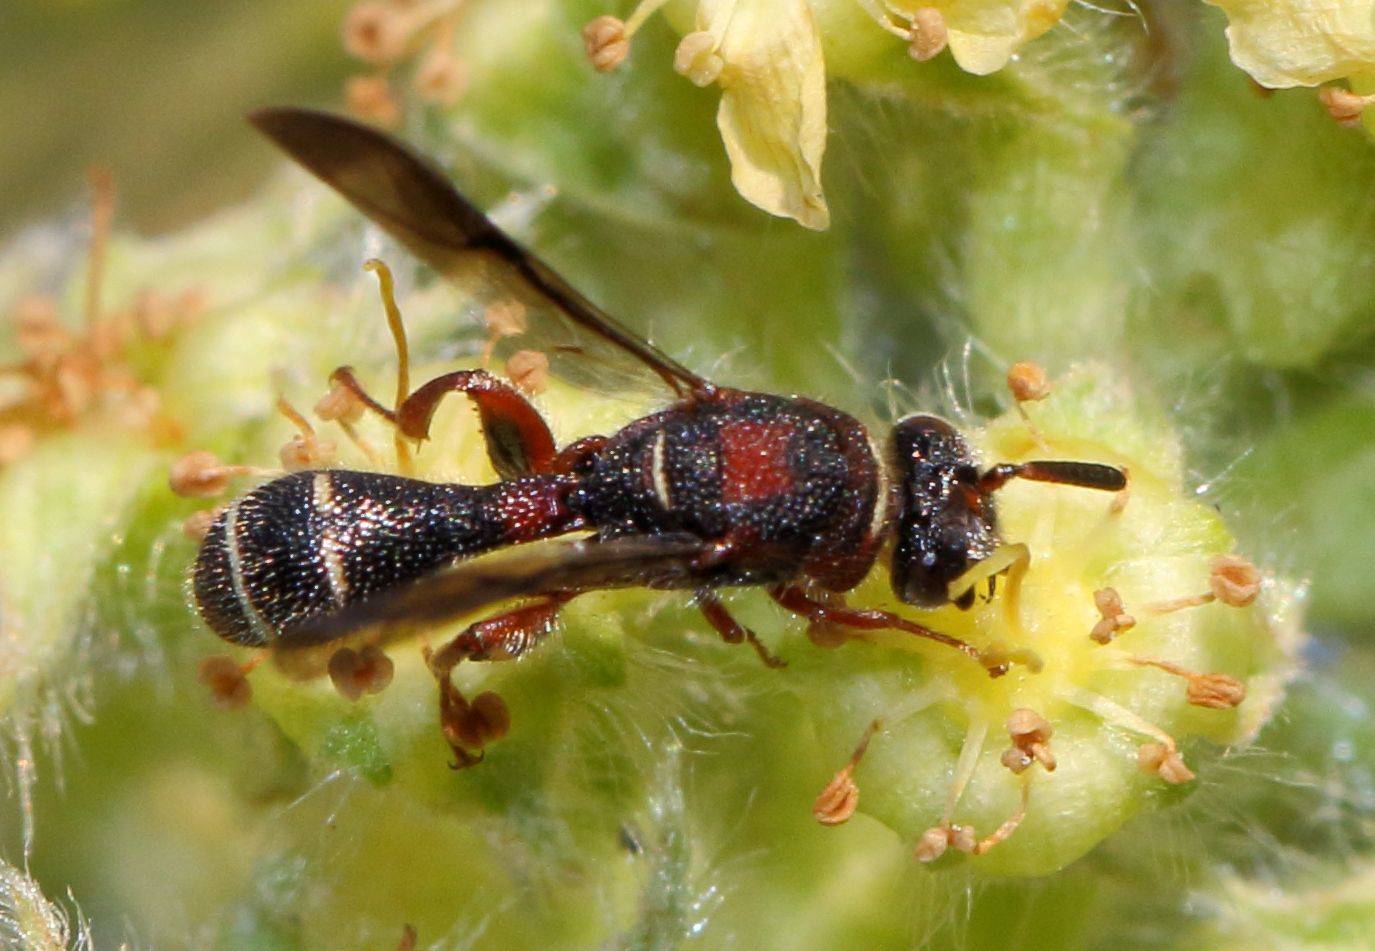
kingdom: Animalia
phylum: Arthropoda
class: Insecta
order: Hymenoptera
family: Leucospidae
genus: Leucospis
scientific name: Leucospis africana
